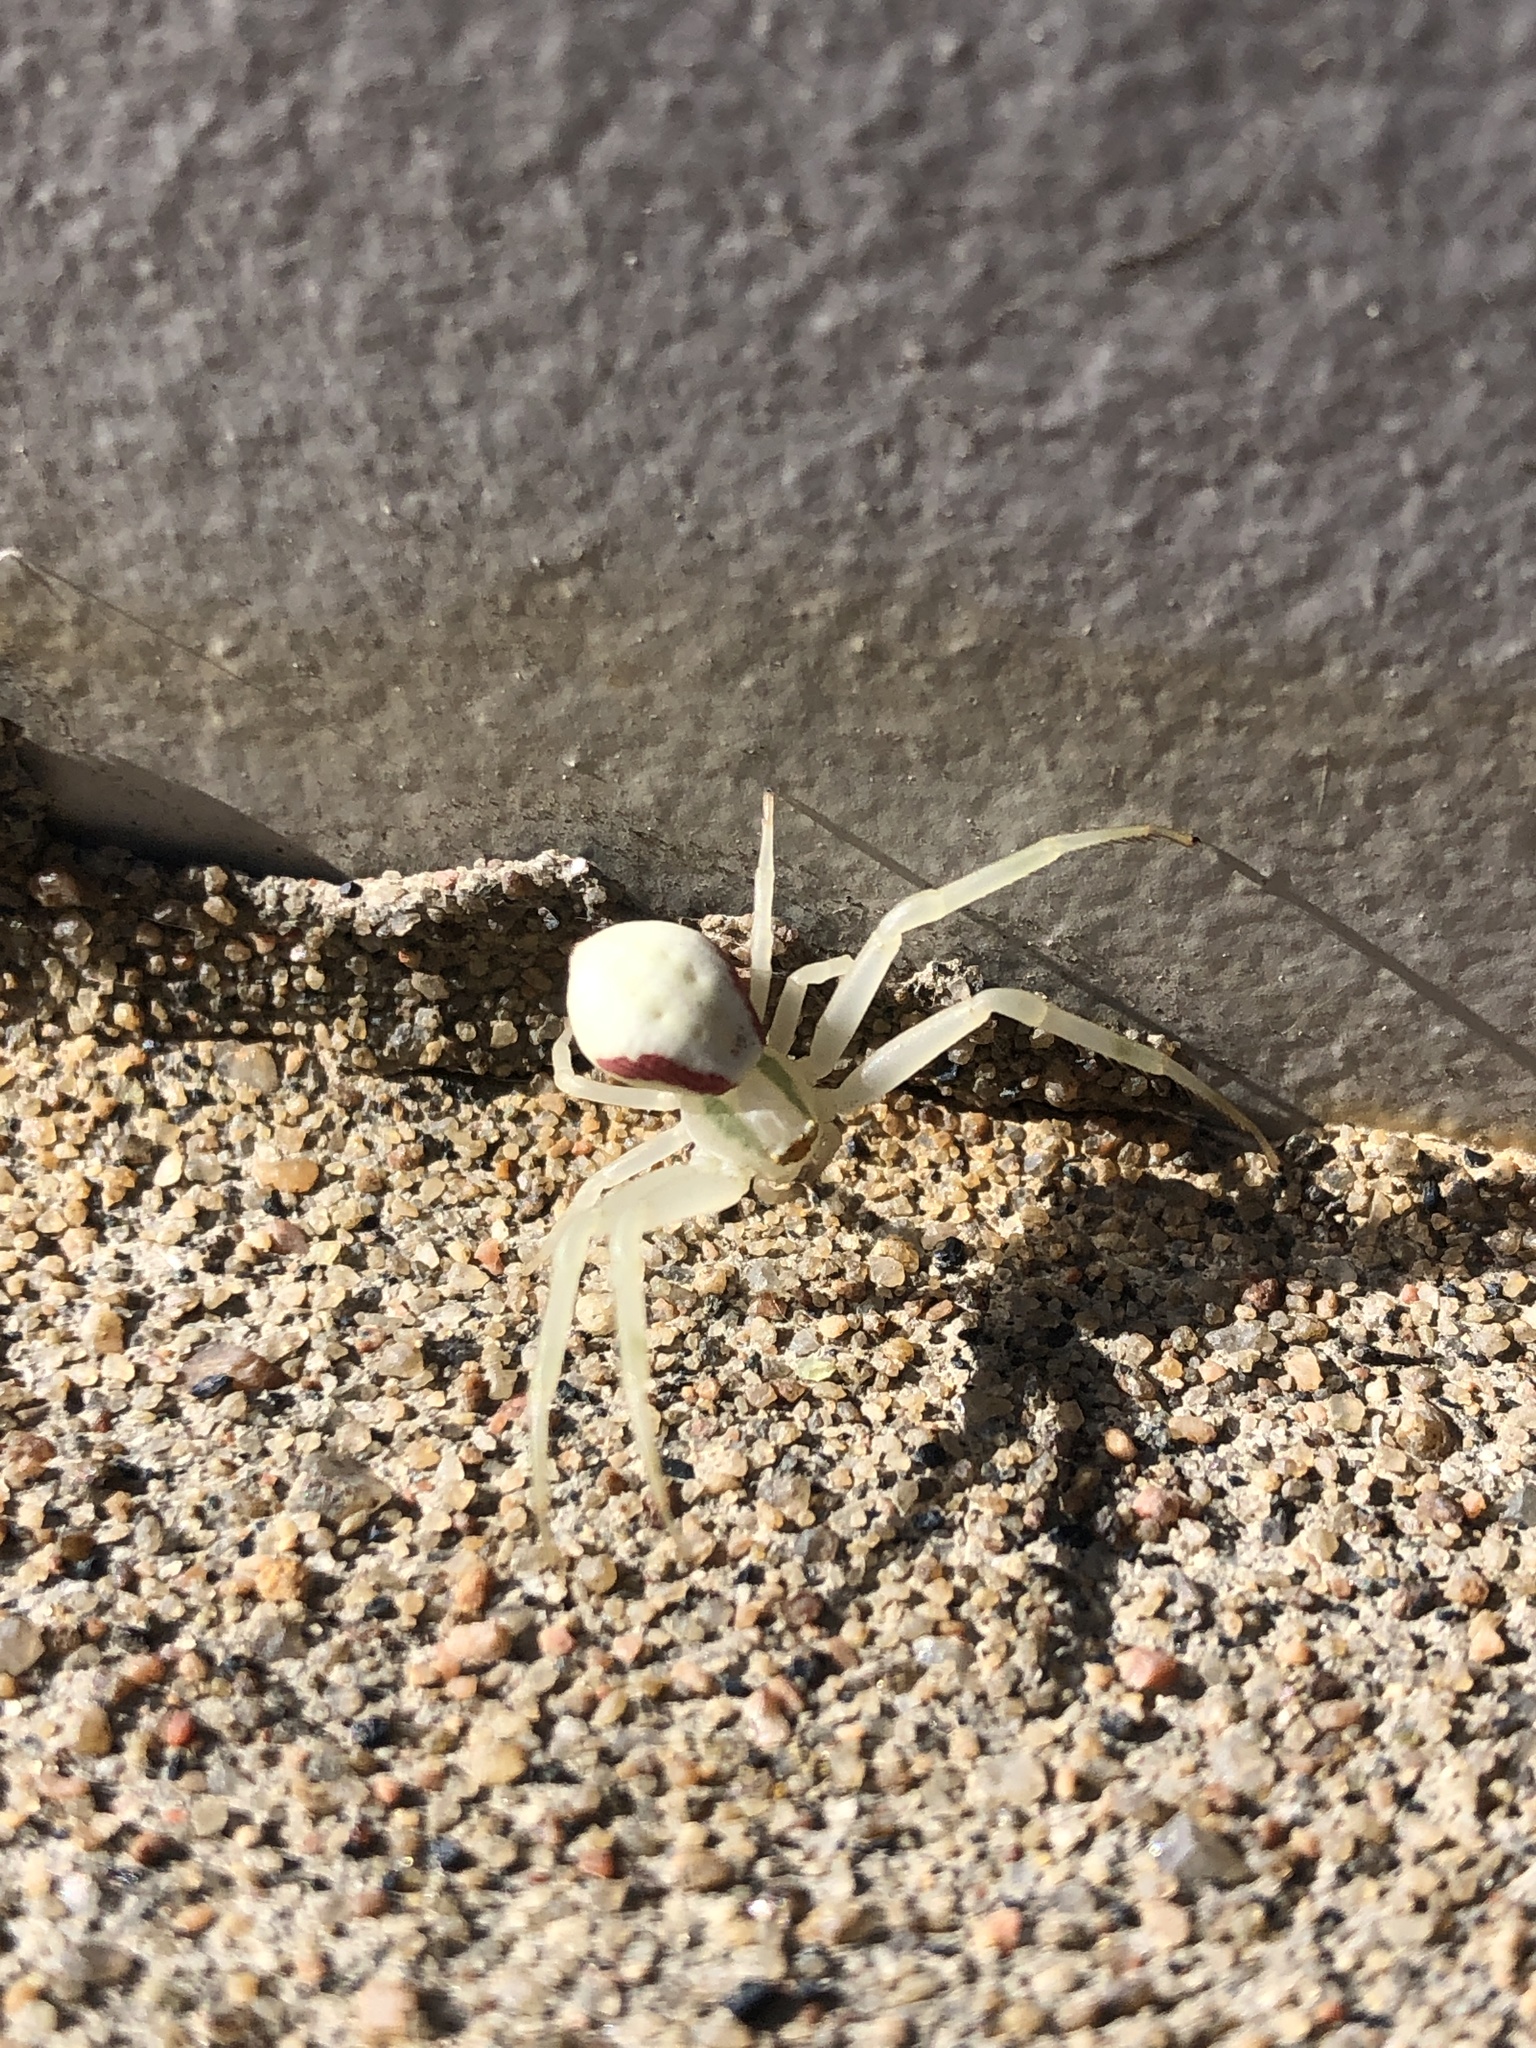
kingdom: Animalia
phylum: Arthropoda
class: Arachnida
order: Araneae
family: Thomisidae
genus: Misumena
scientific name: Misumena vatia
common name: Goldenrod crab spider
